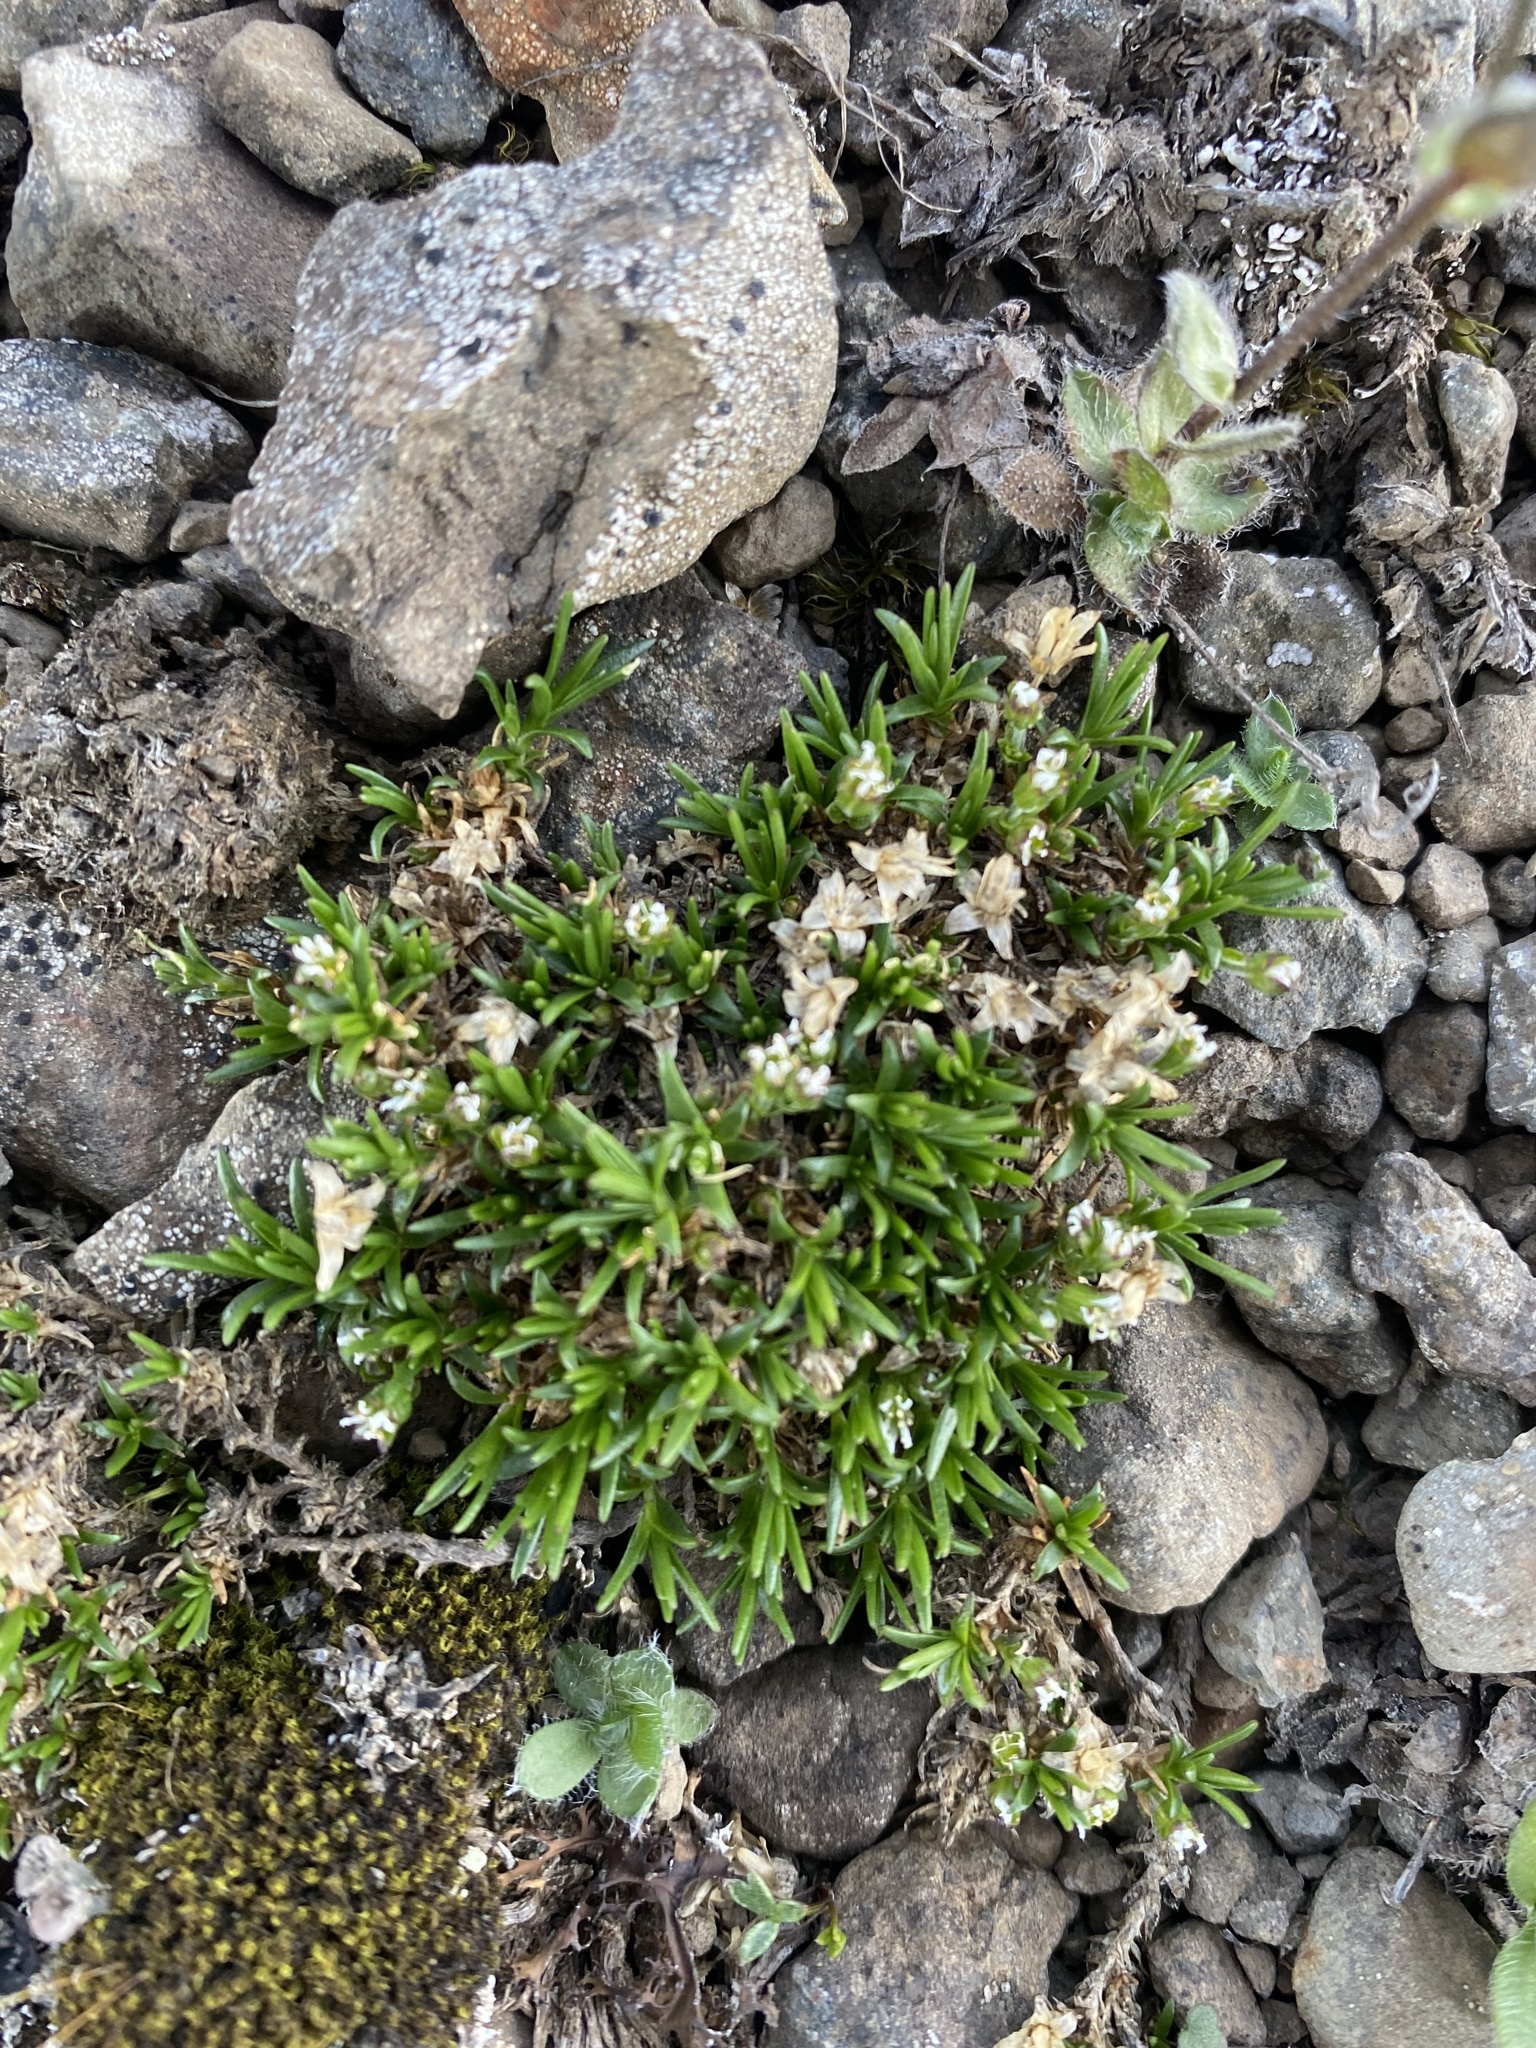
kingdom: Plantae
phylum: Tracheophyta
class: Magnoliopsida
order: Caryophyllales
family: Caryophyllaceae
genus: Cherleria
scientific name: Cherleria biflora
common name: Mountain sandwort
